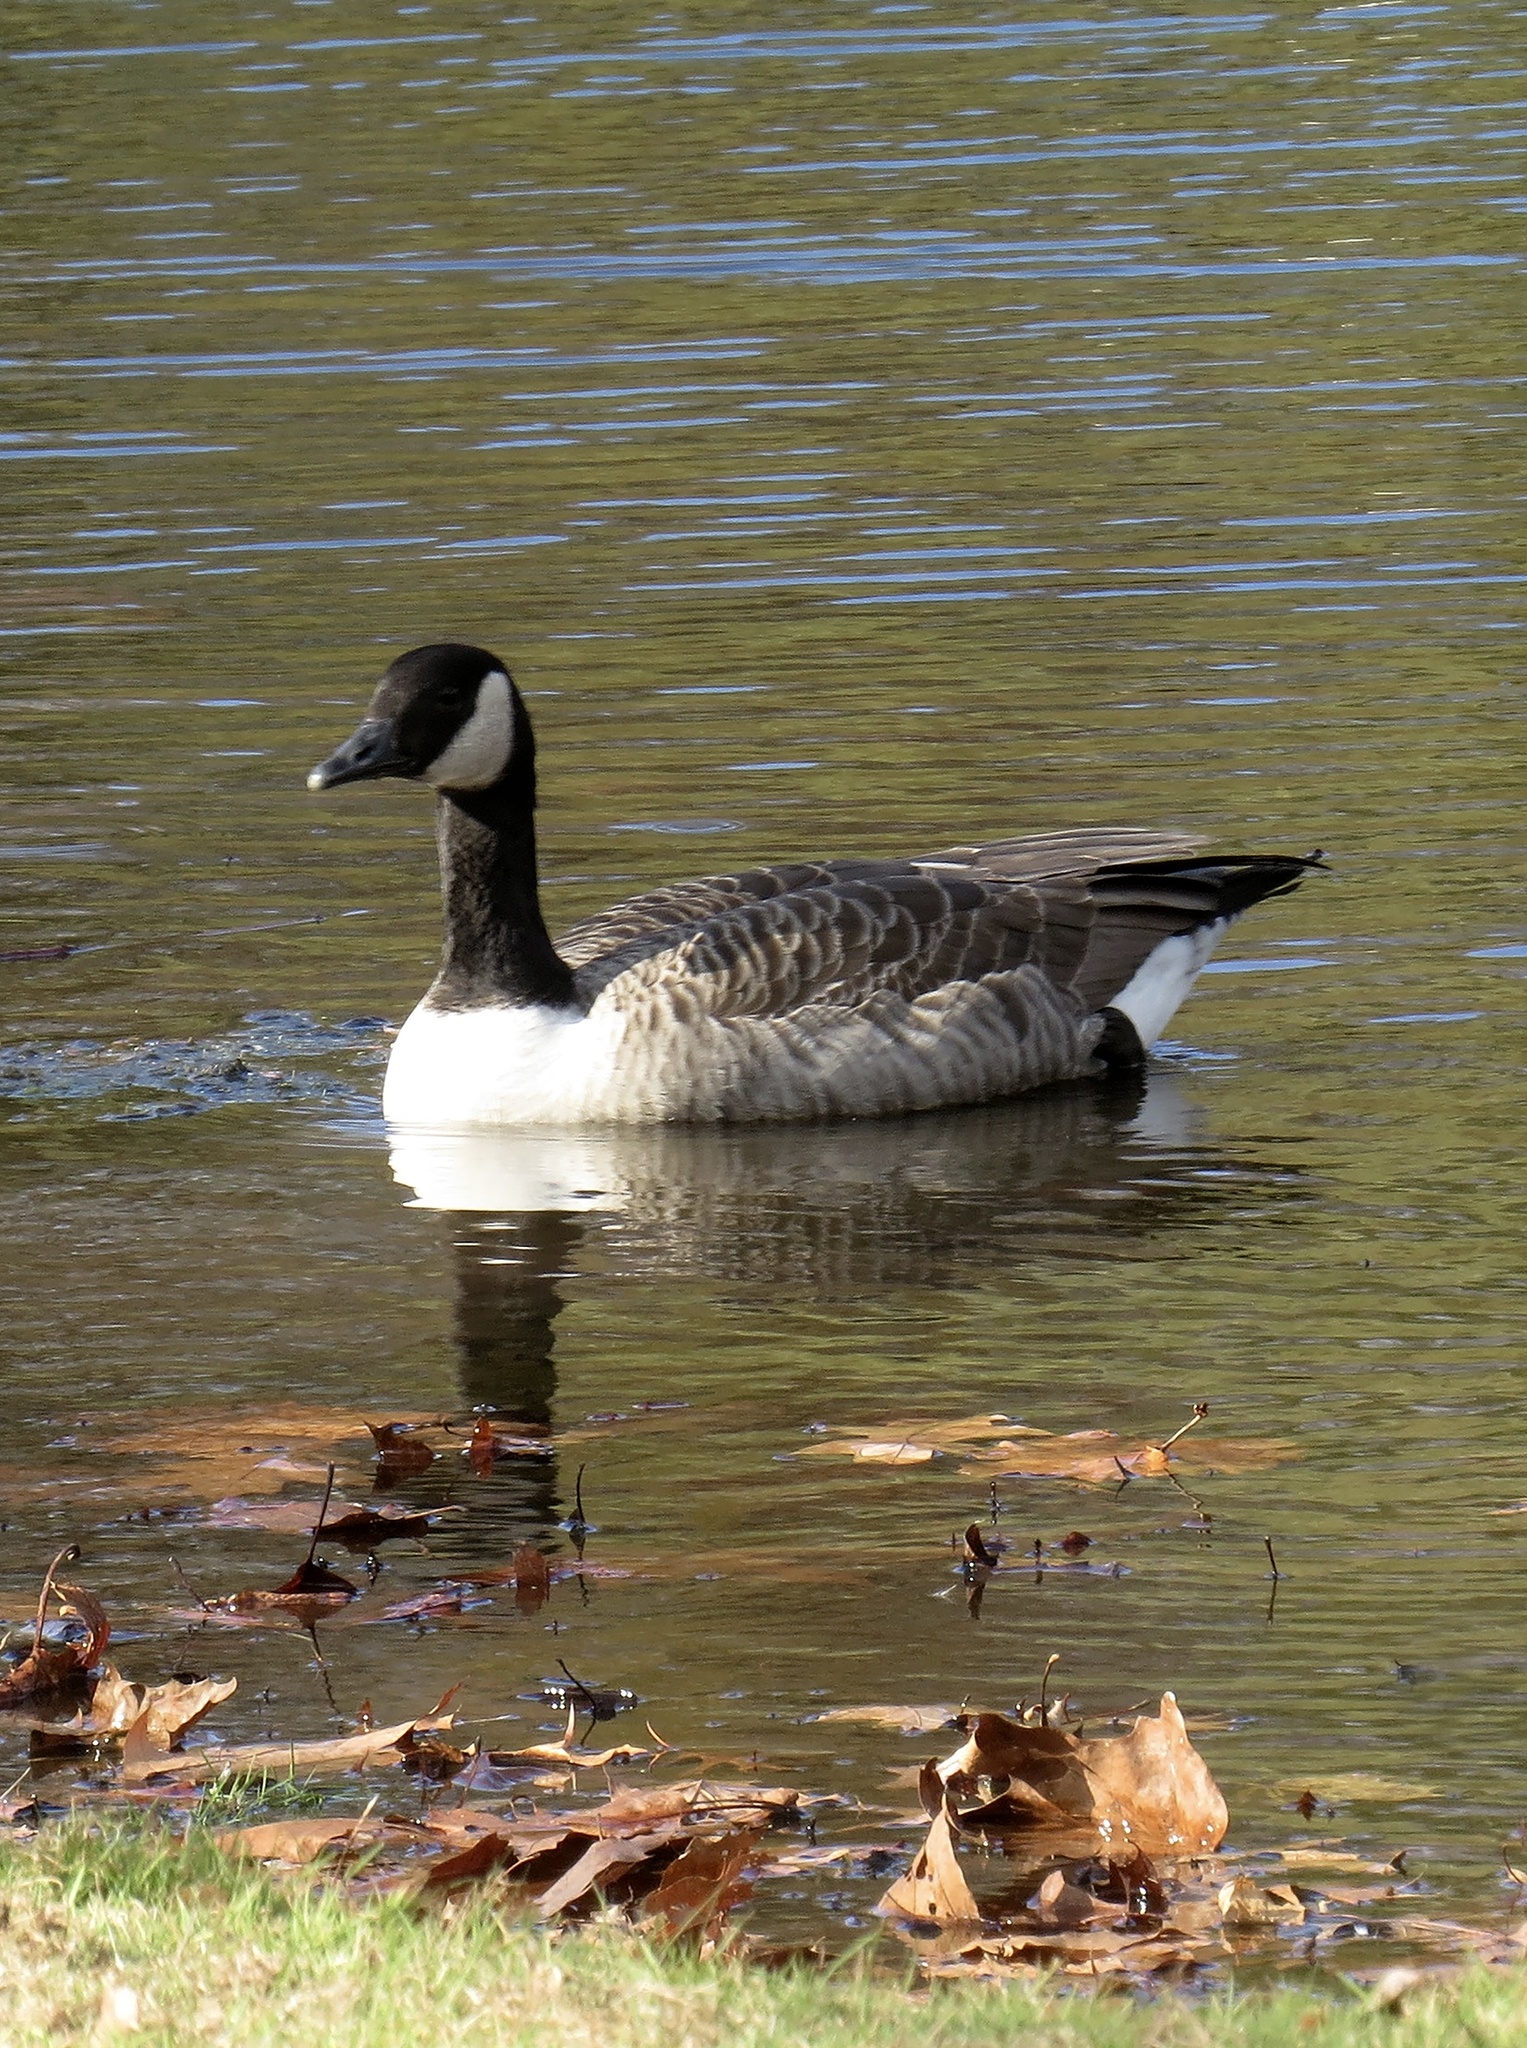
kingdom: Animalia
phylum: Chordata
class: Aves
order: Anseriformes
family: Anatidae
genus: Branta
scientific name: Branta canadensis
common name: Canada goose
